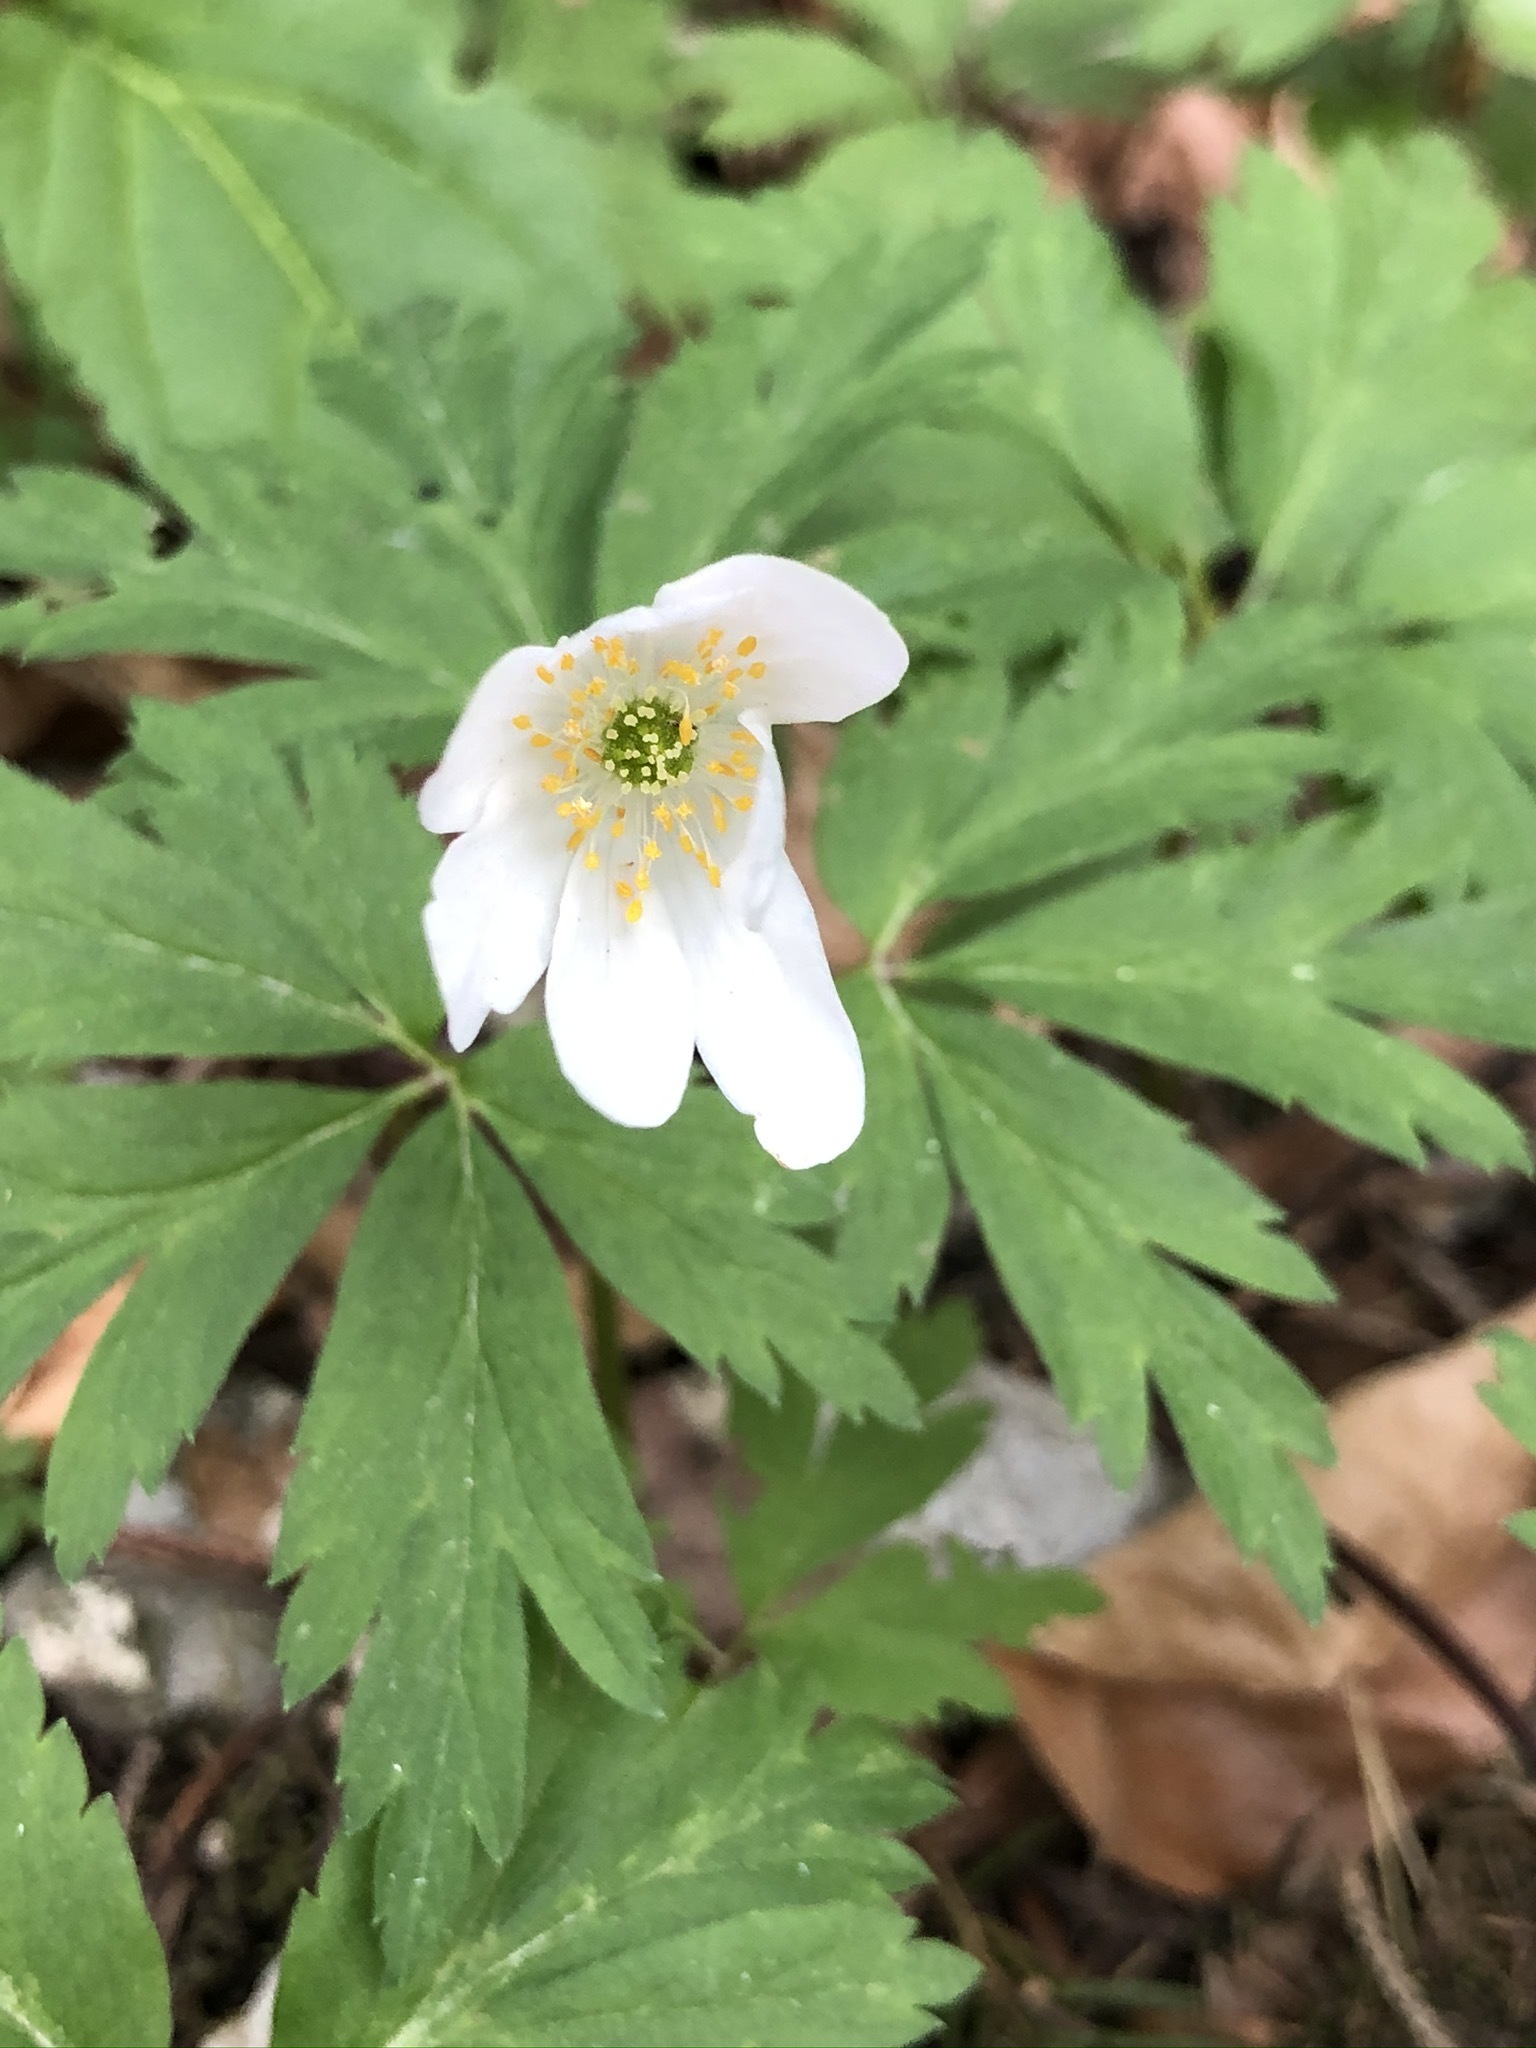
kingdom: Plantae
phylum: Tracheophyta
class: Magnoliopsida
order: Ranunculales
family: Ranunculaceae
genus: Anemone
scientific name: Anemone nemorosa
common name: Wood anemone
